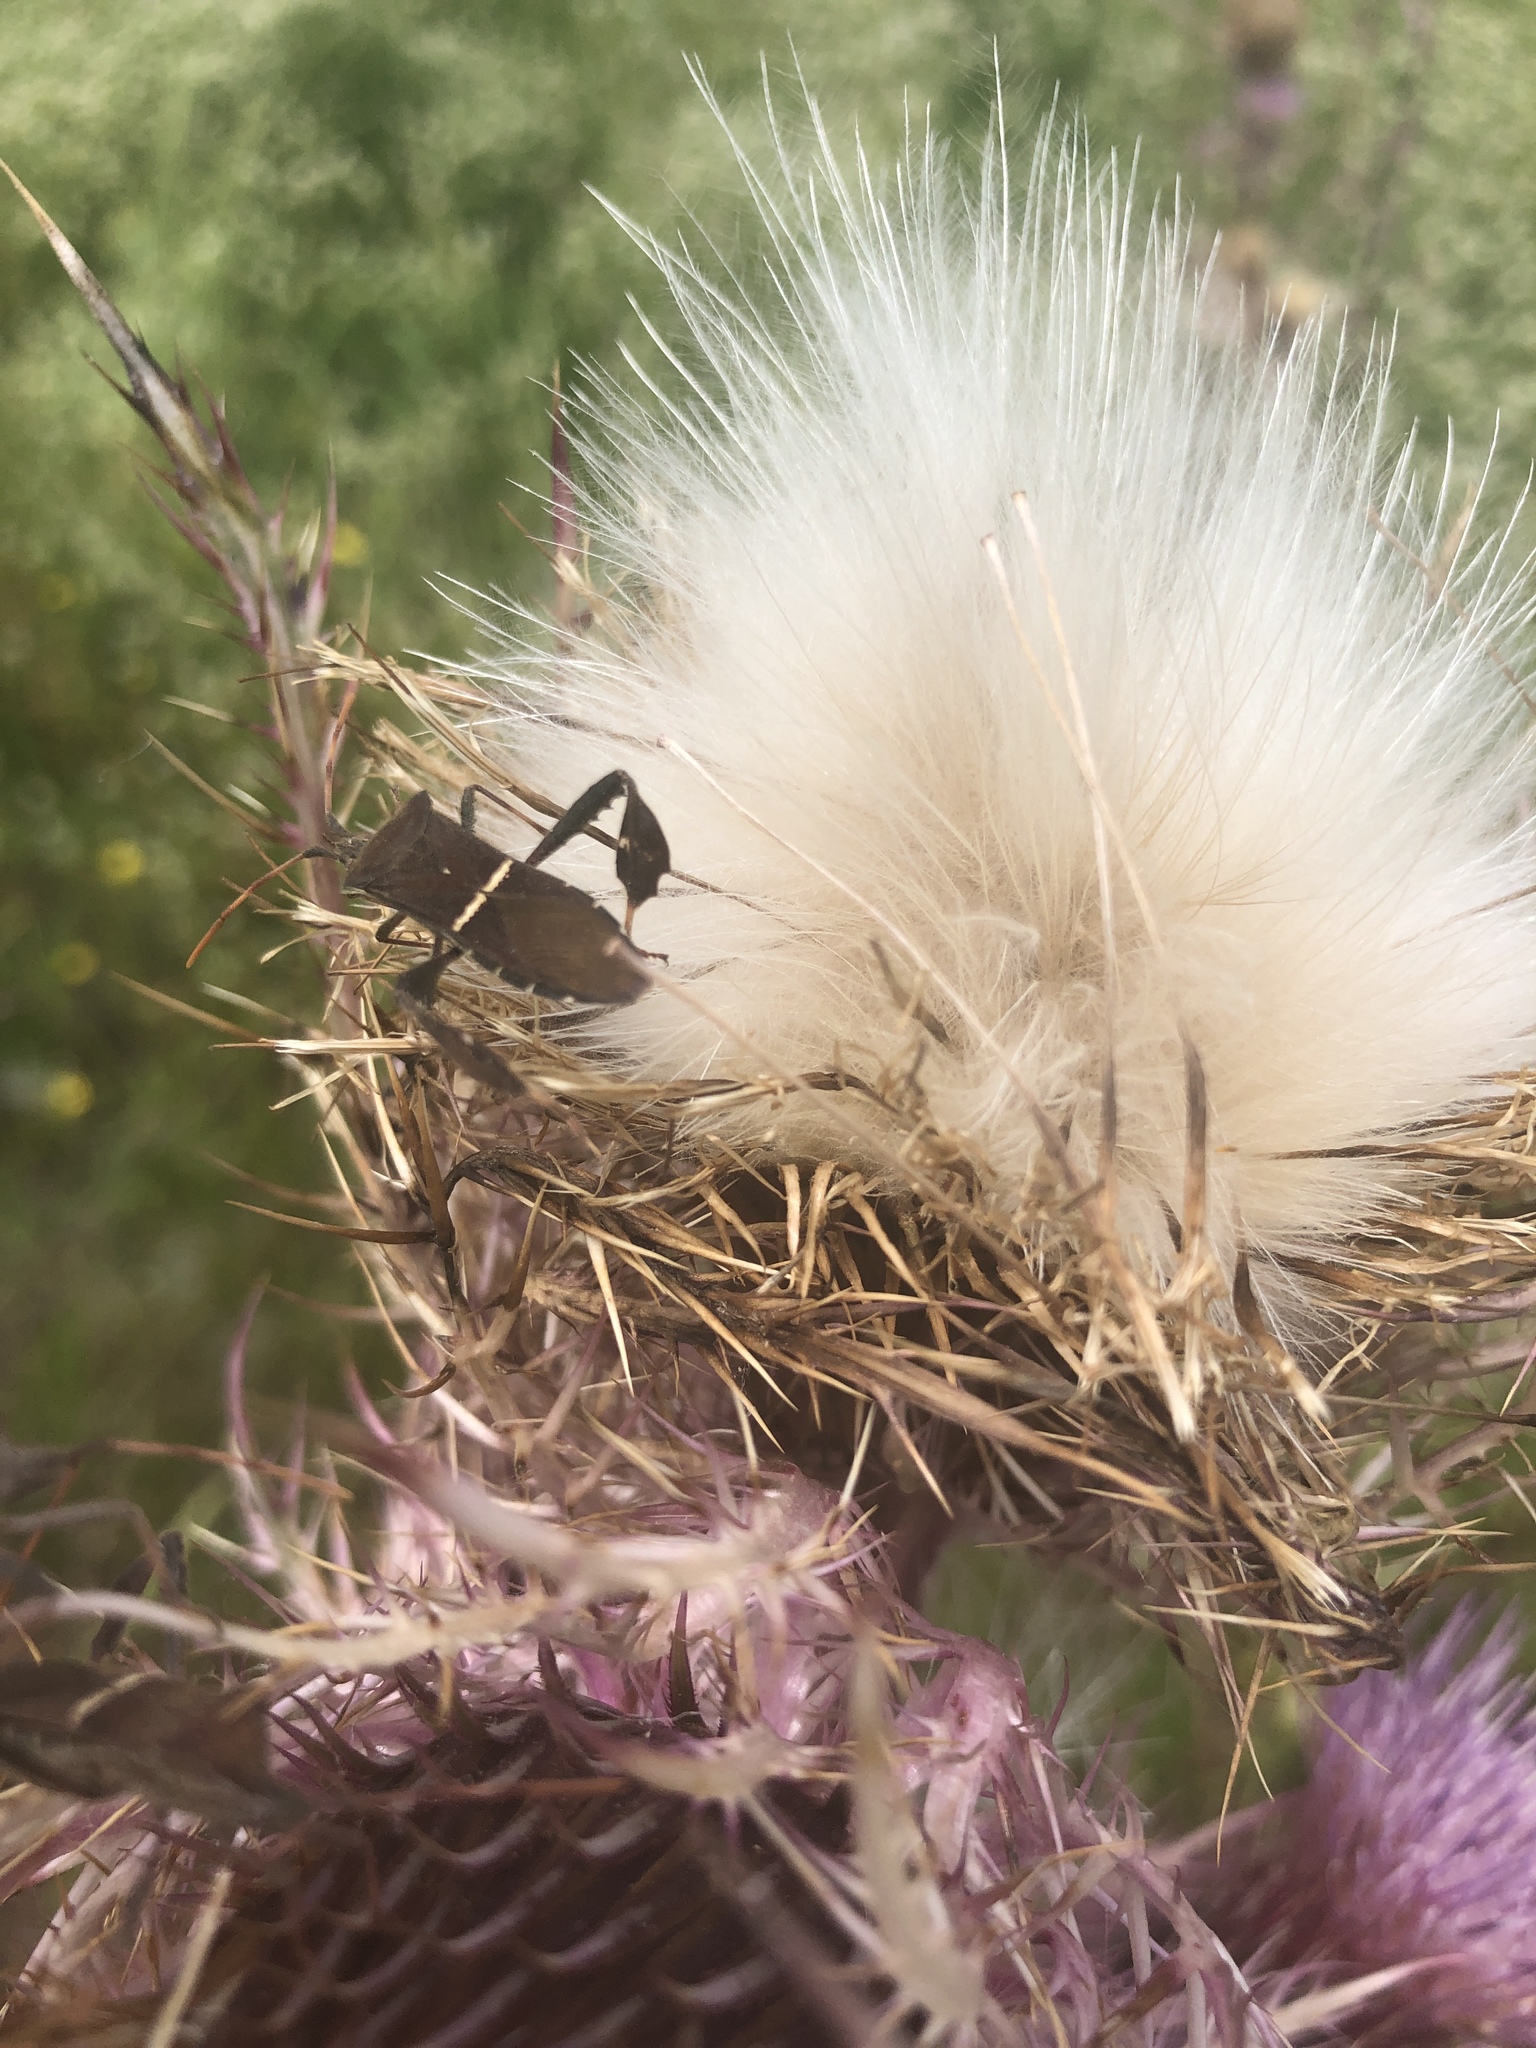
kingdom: Animalia
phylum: Arthropoda
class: Insecta
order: Hemiptera
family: Coreidae
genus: Leptoglossus
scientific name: Leptoglossus phyllopus
